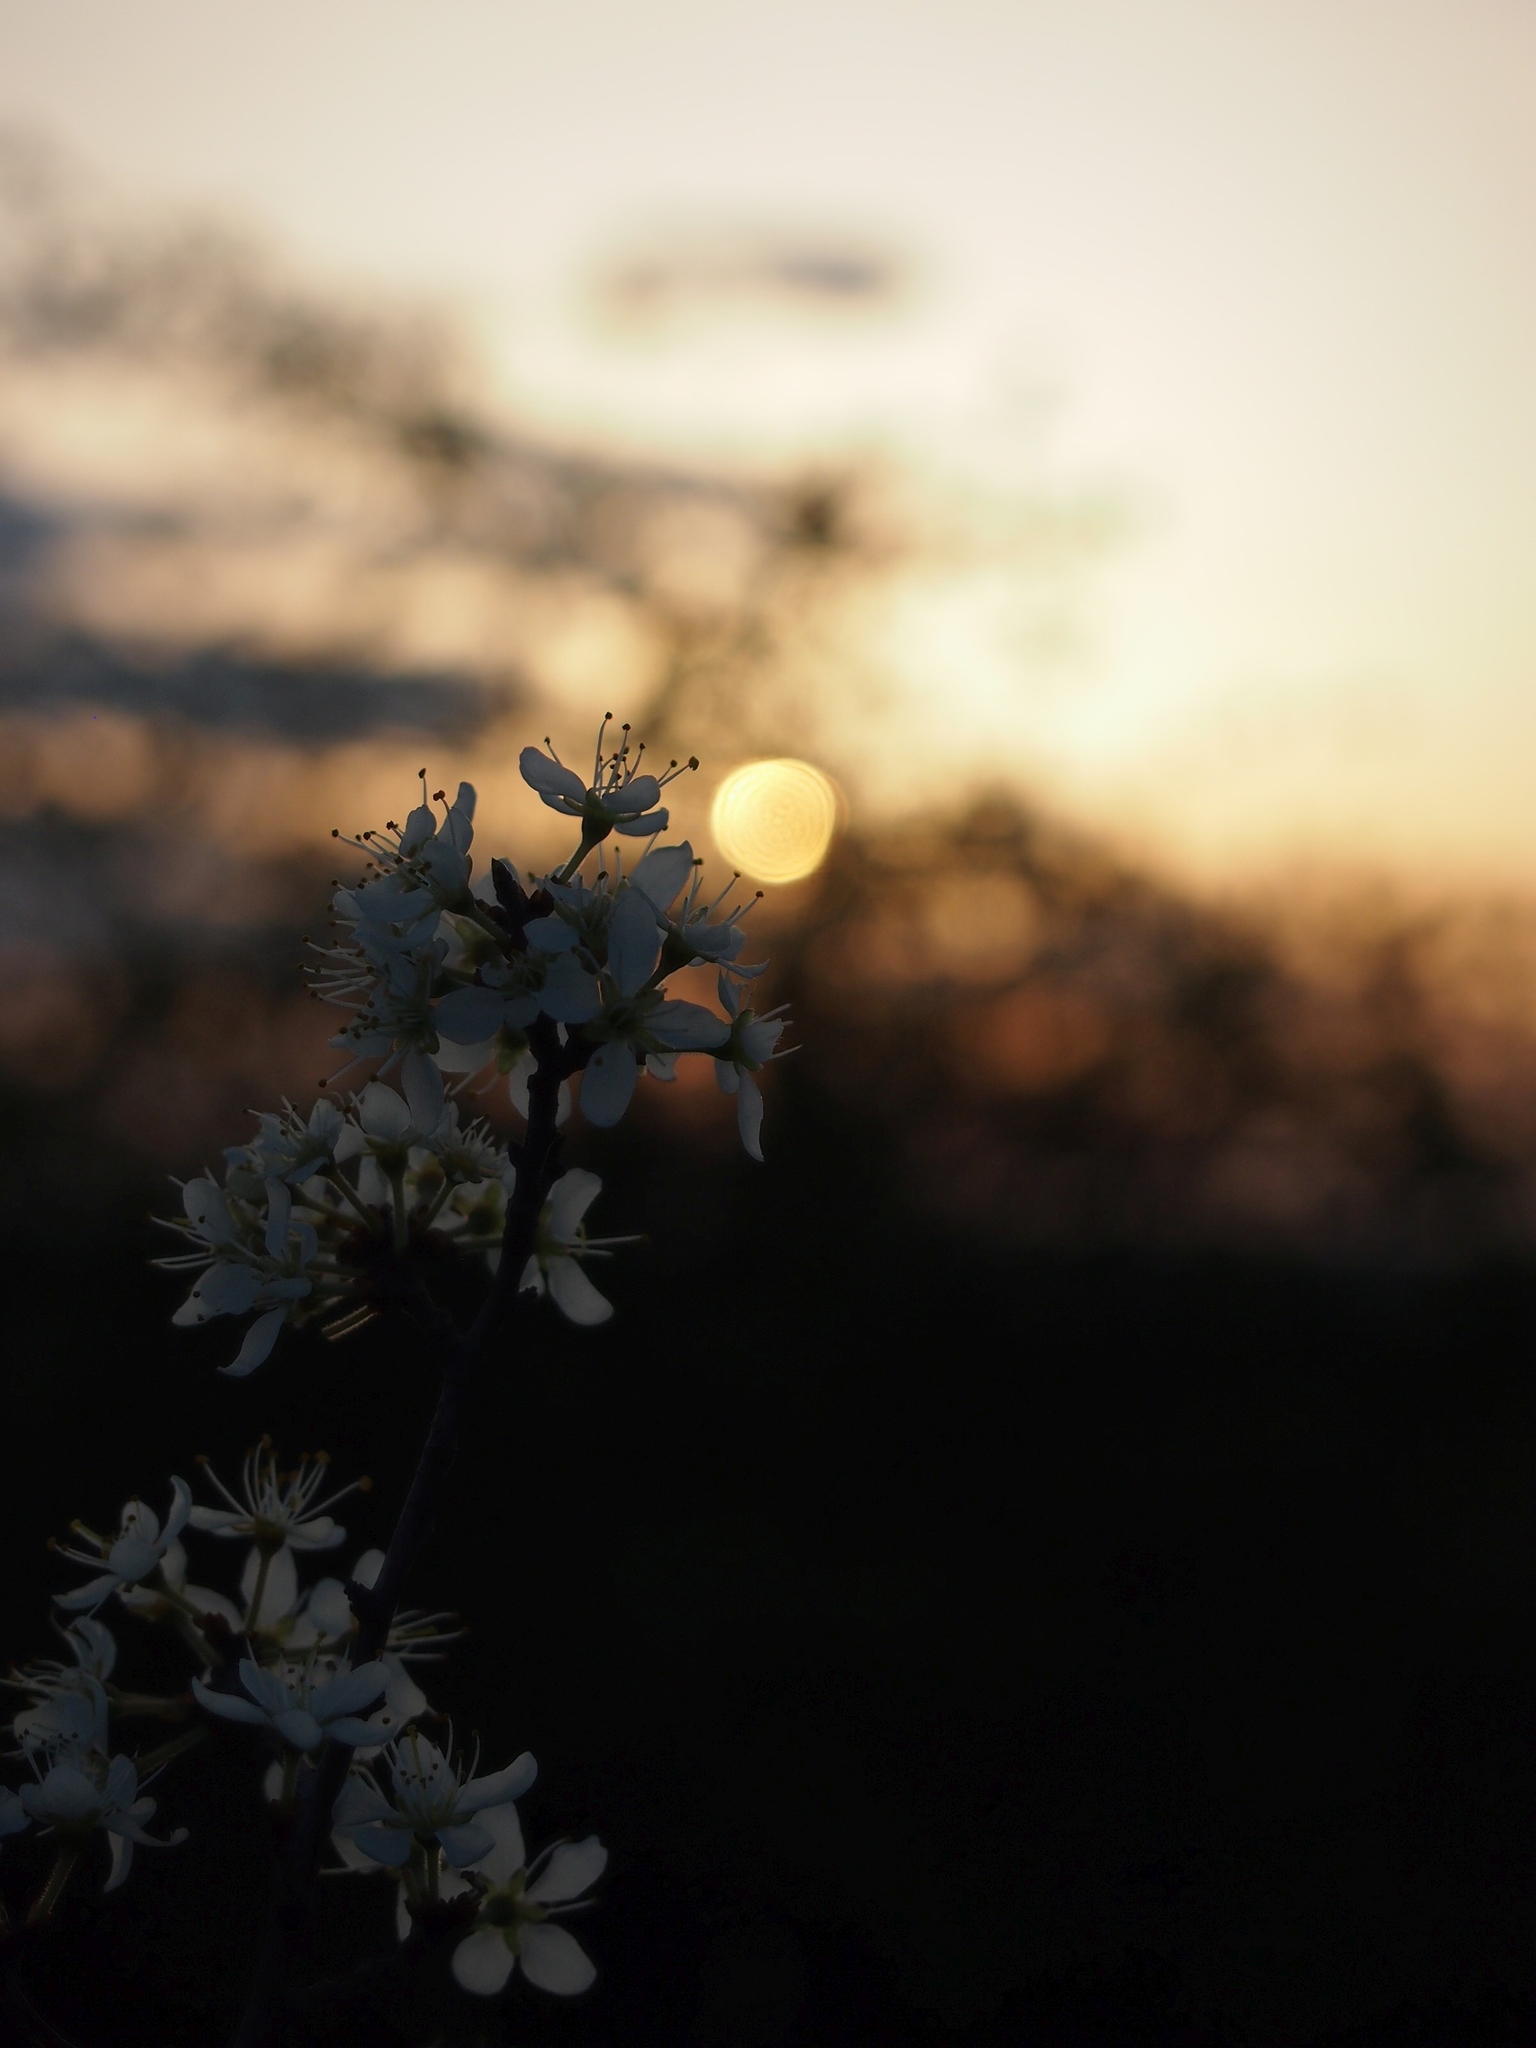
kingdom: Plantae
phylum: Tracheophyta
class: Magnoliopsida
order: Rosales
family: Rosaceae
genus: Prunus
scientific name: Prunus spinosa
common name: Blackthorn
